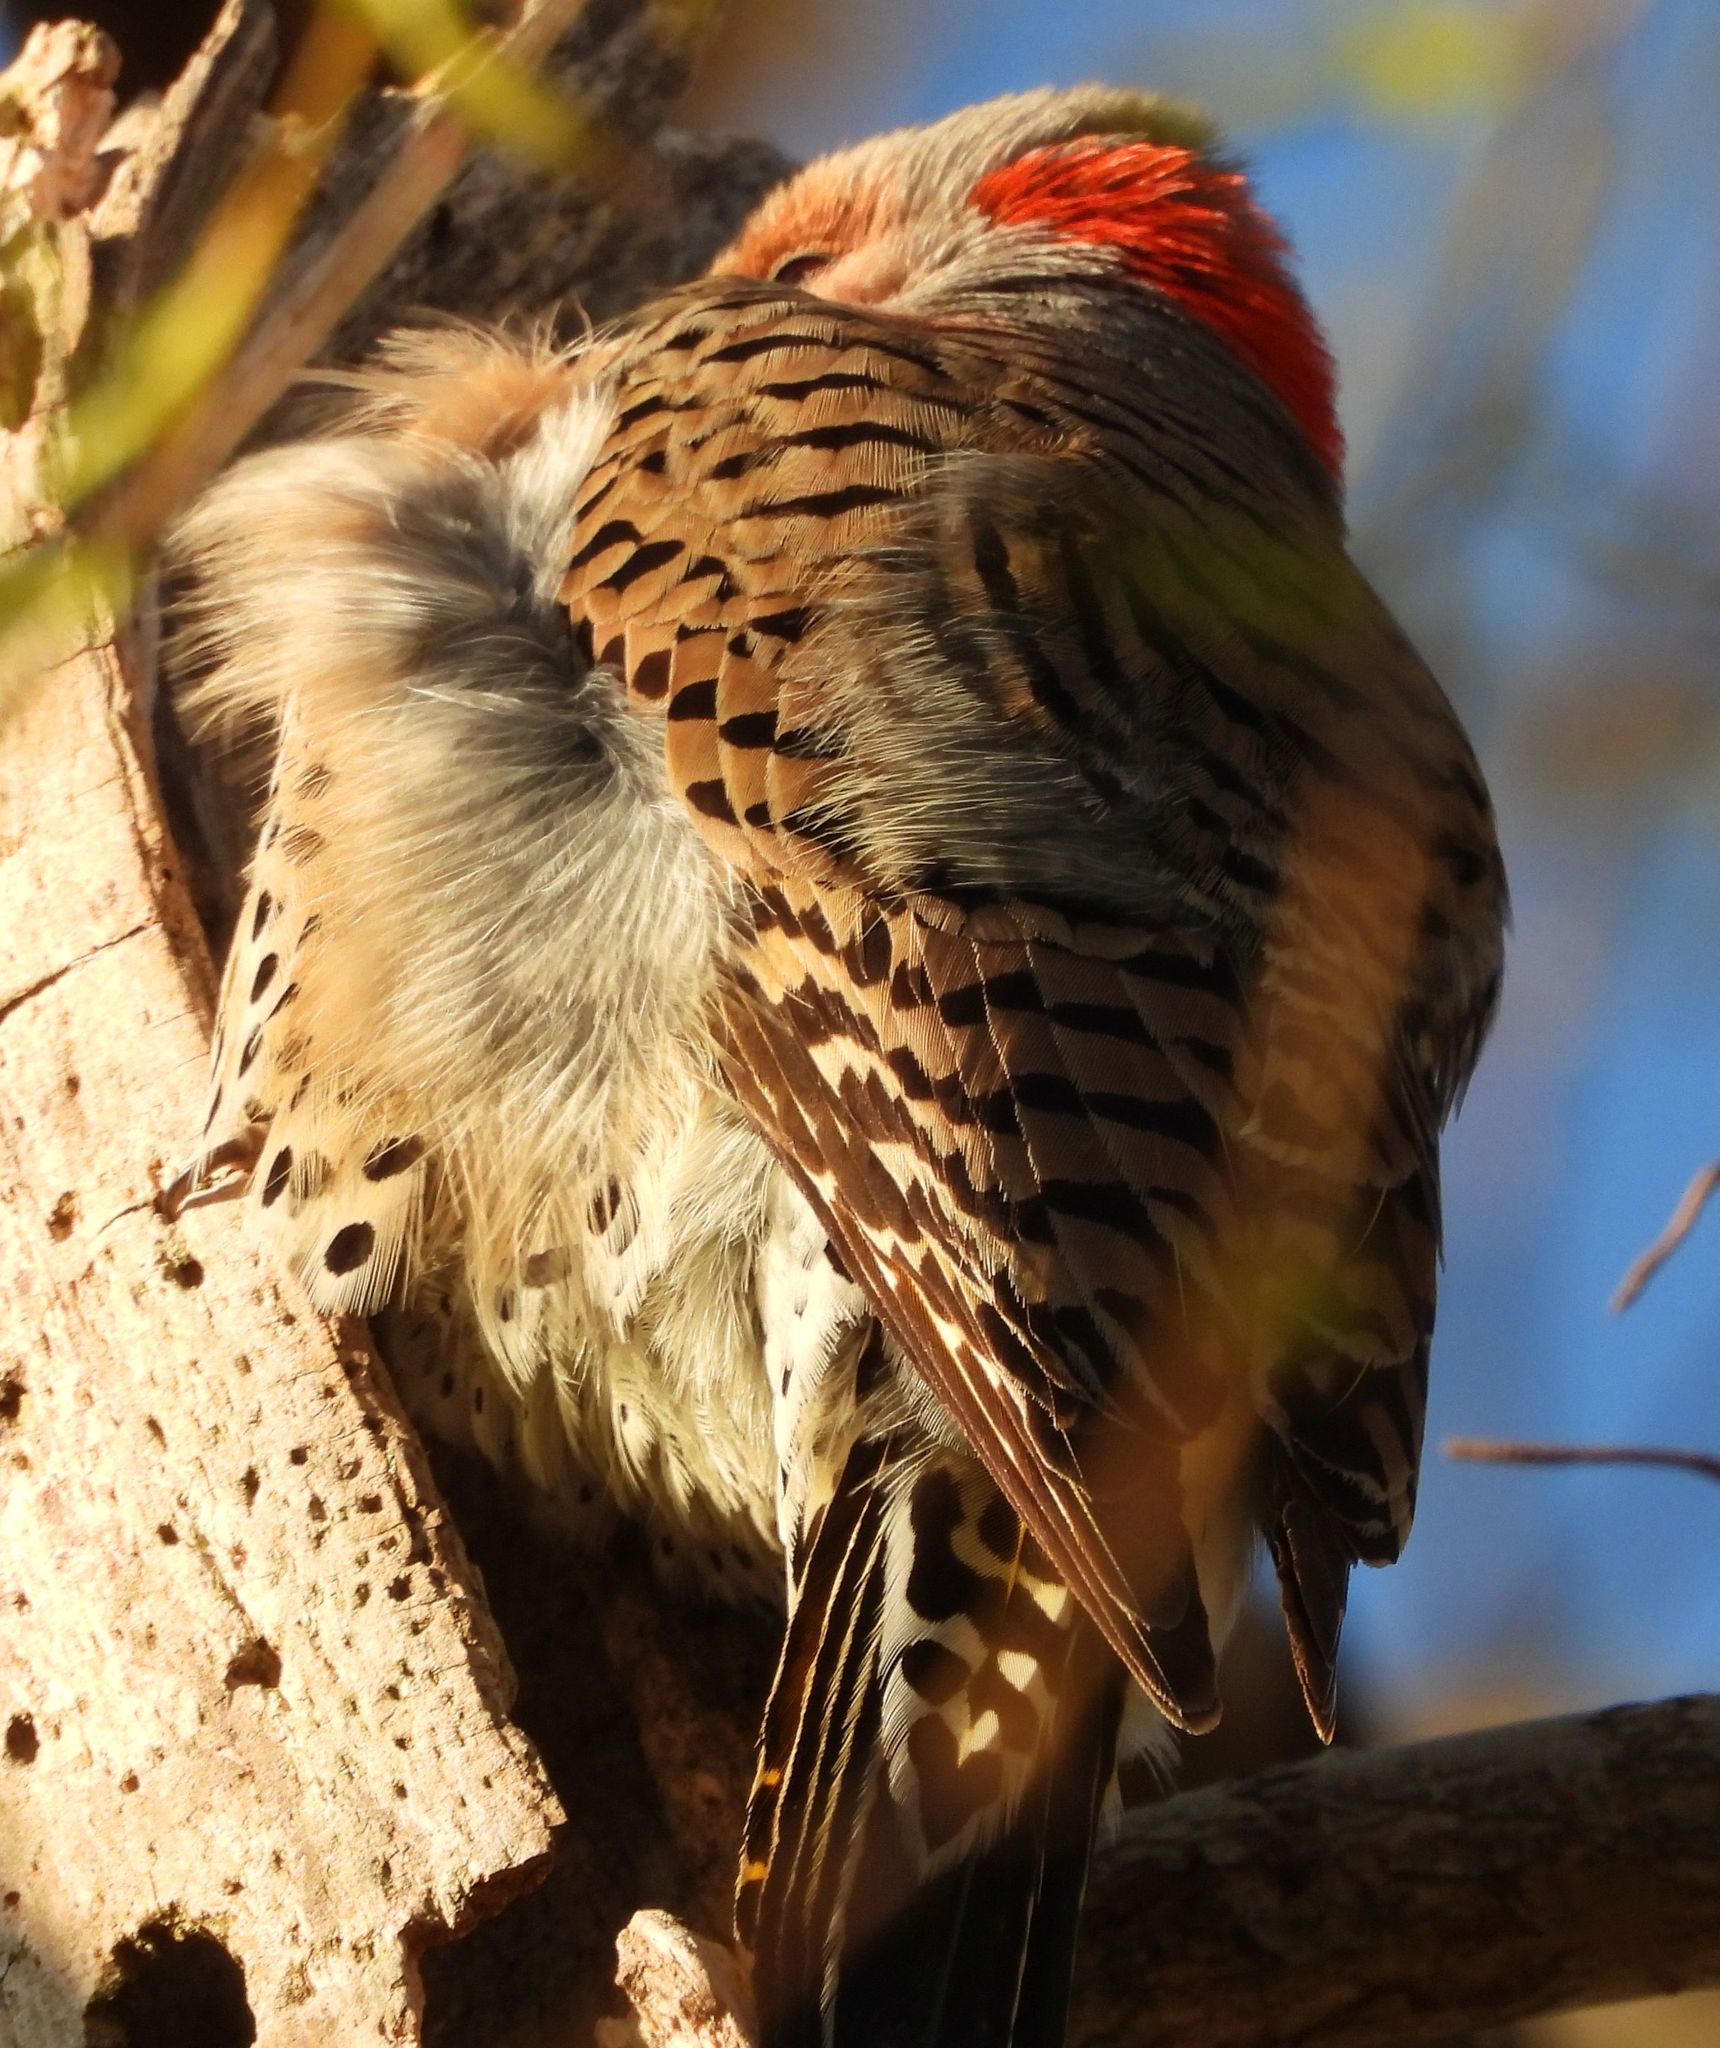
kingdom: Animalia
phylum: Chordata
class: Aves
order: Piciformes
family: Picidae
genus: Colaptes
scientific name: Colaptes auratus
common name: Northern flicker
